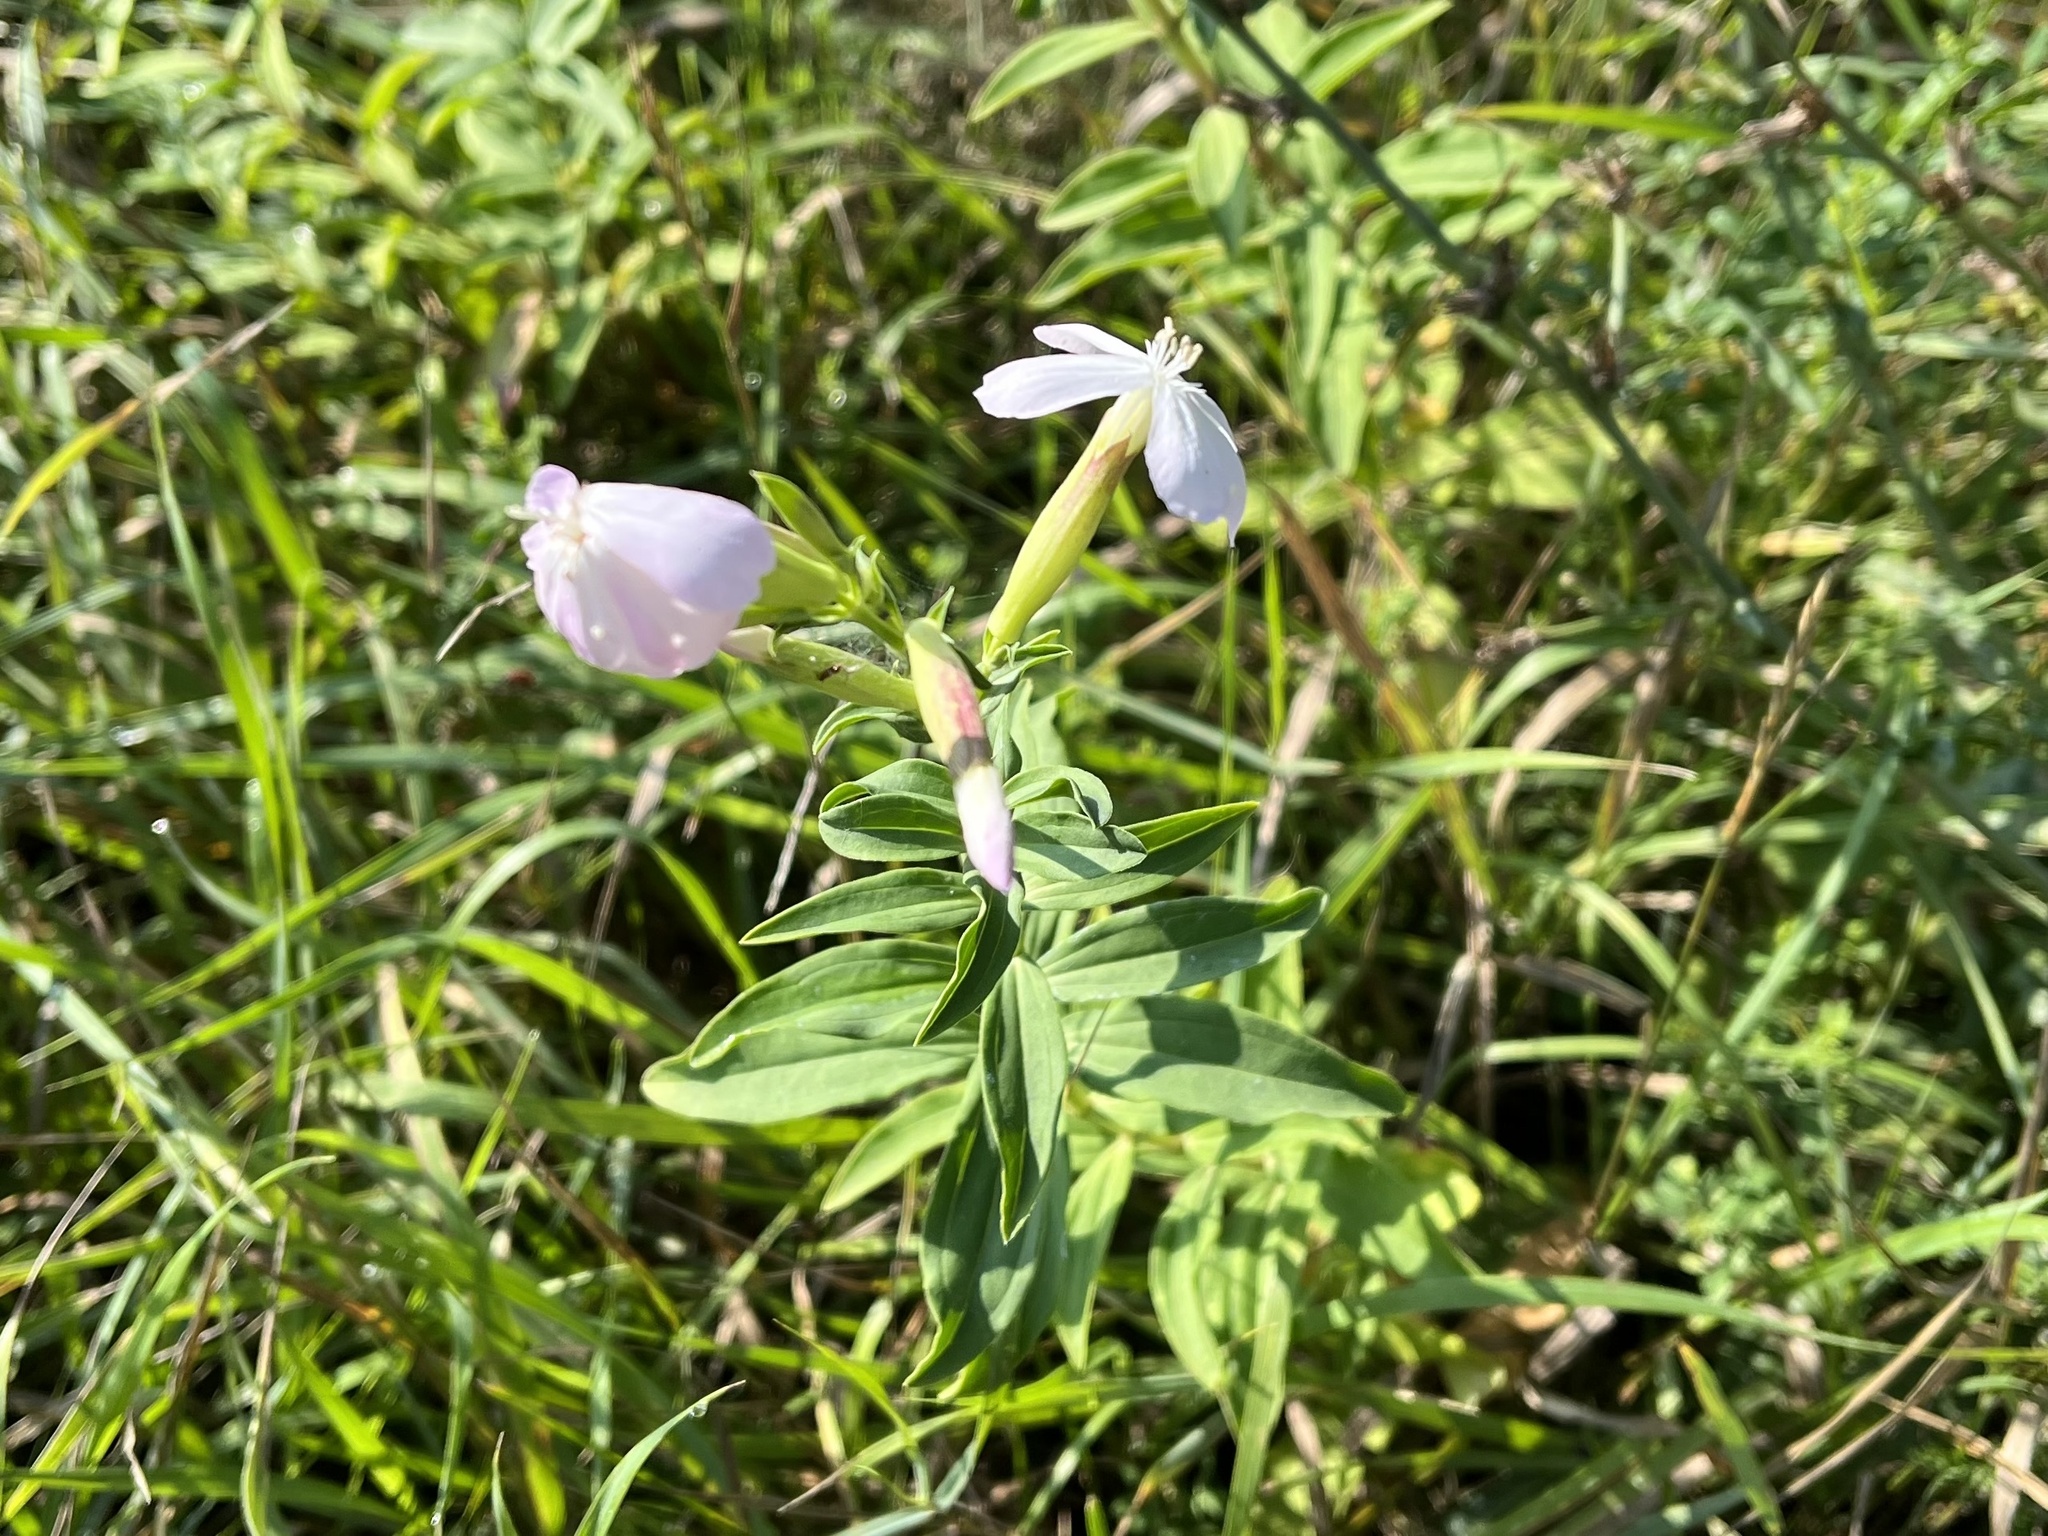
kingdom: Plantae
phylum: Tracheophyta
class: Magnoliopsida
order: Caryophyllales
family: Caryophyllaceae
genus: Saponaria
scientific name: Saponaria officinalis
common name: Soapwort
